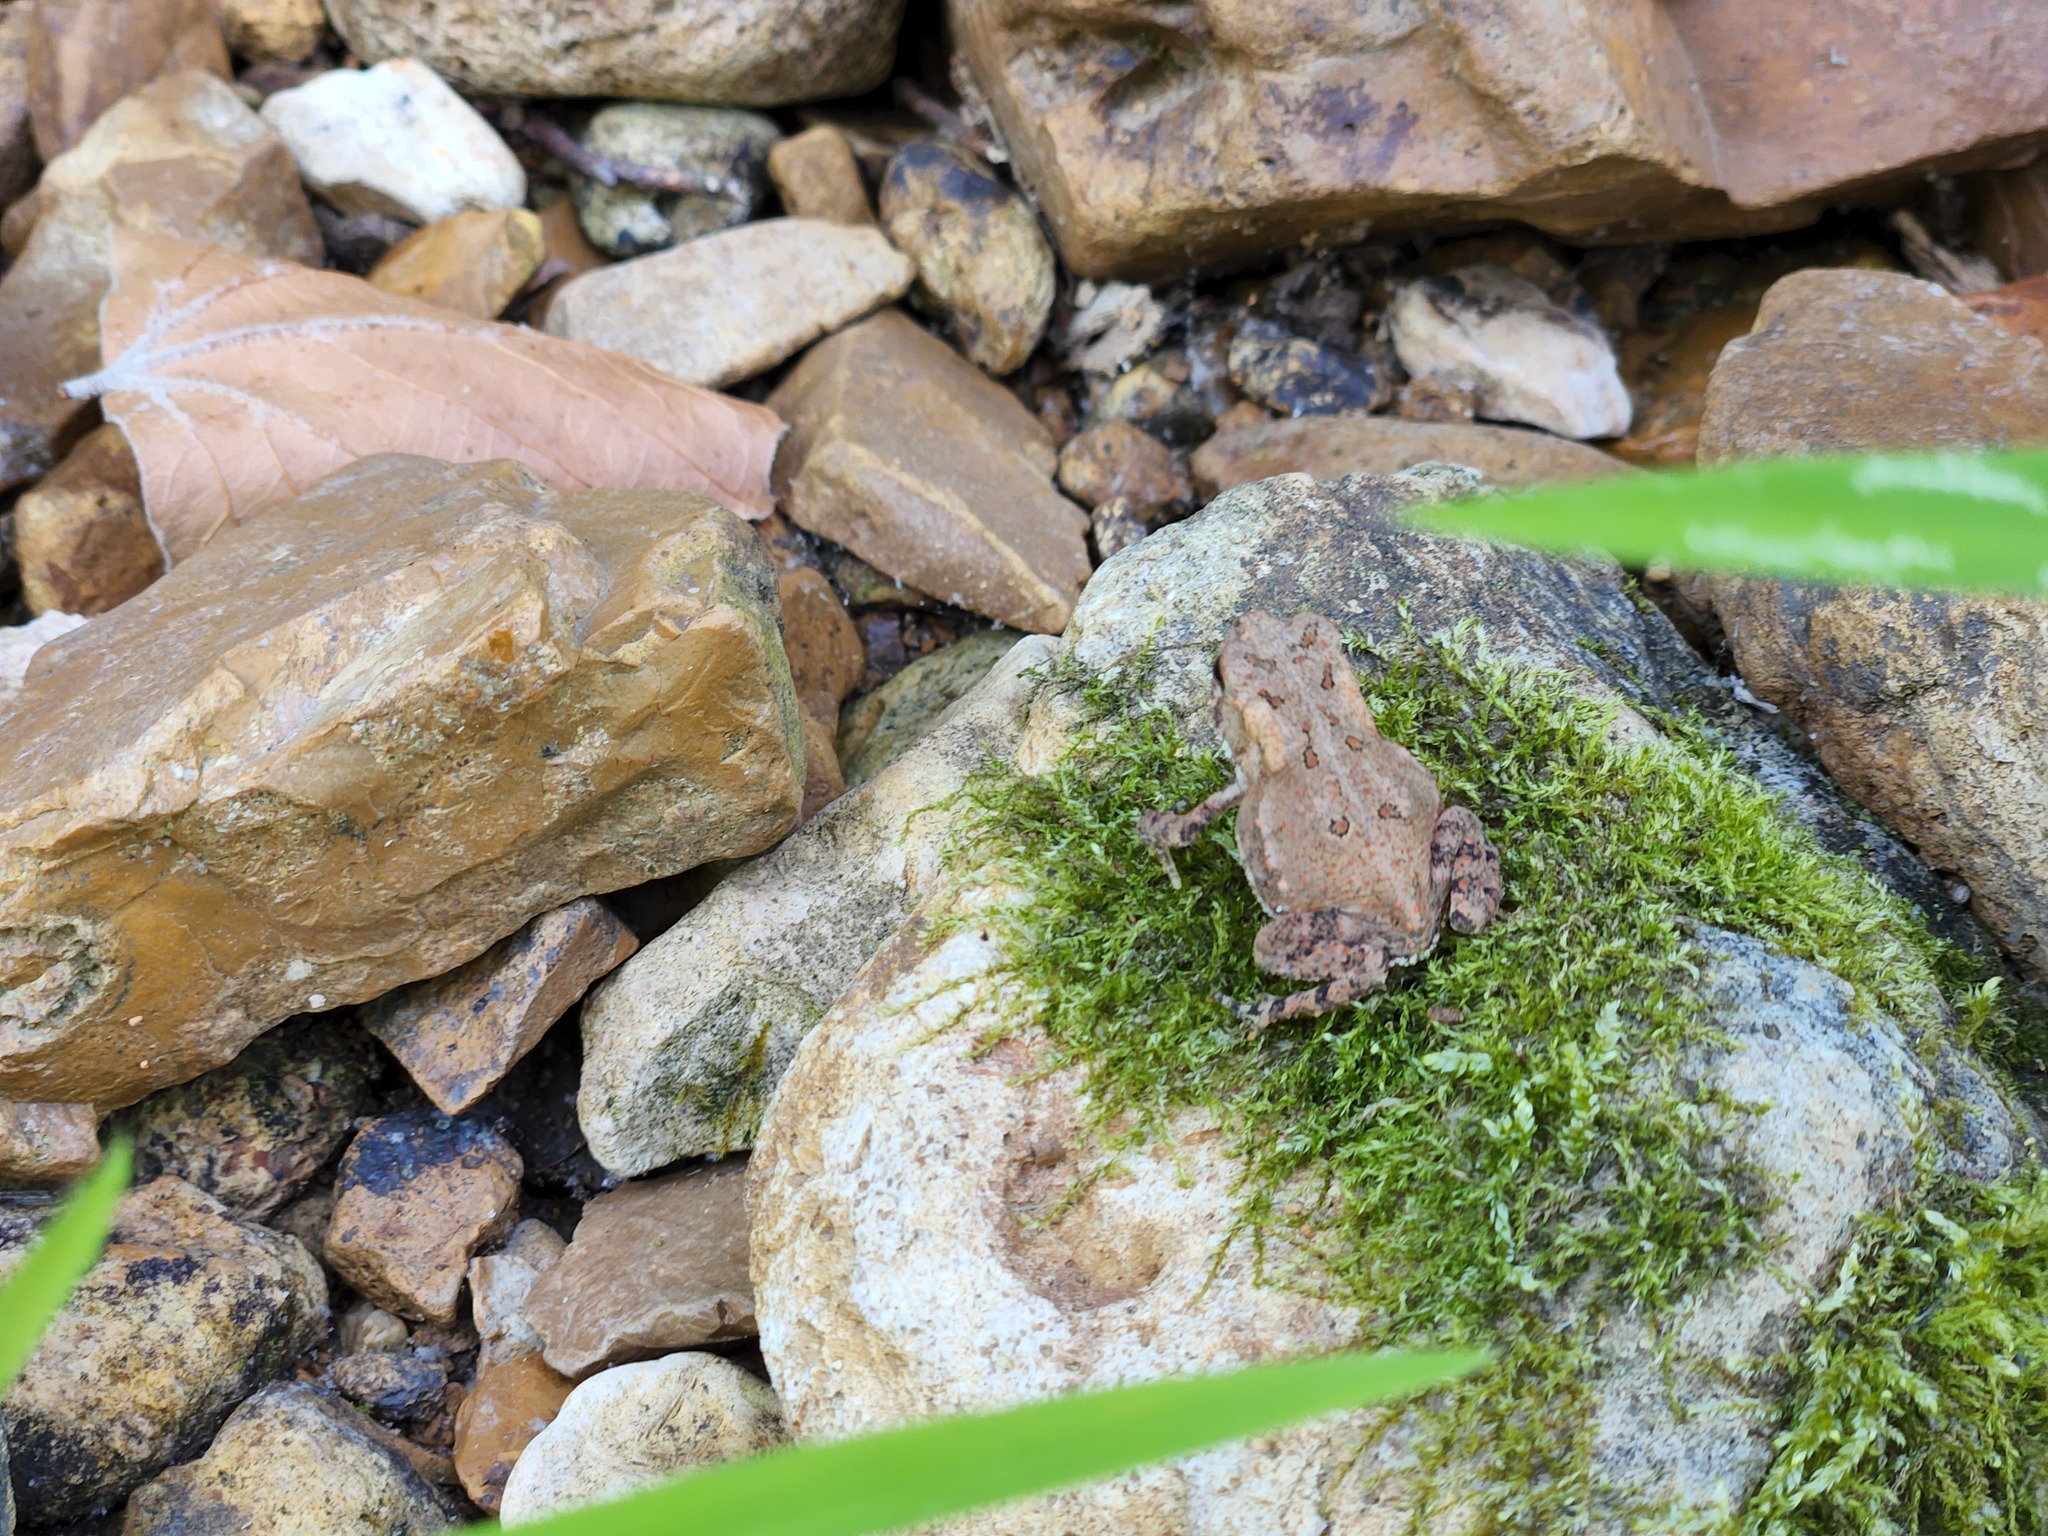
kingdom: Animalia
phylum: Chordata
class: Amphibia
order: Anura
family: Bufonidae
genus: Anaxyrus
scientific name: Anaxyrus americanus
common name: American toad
